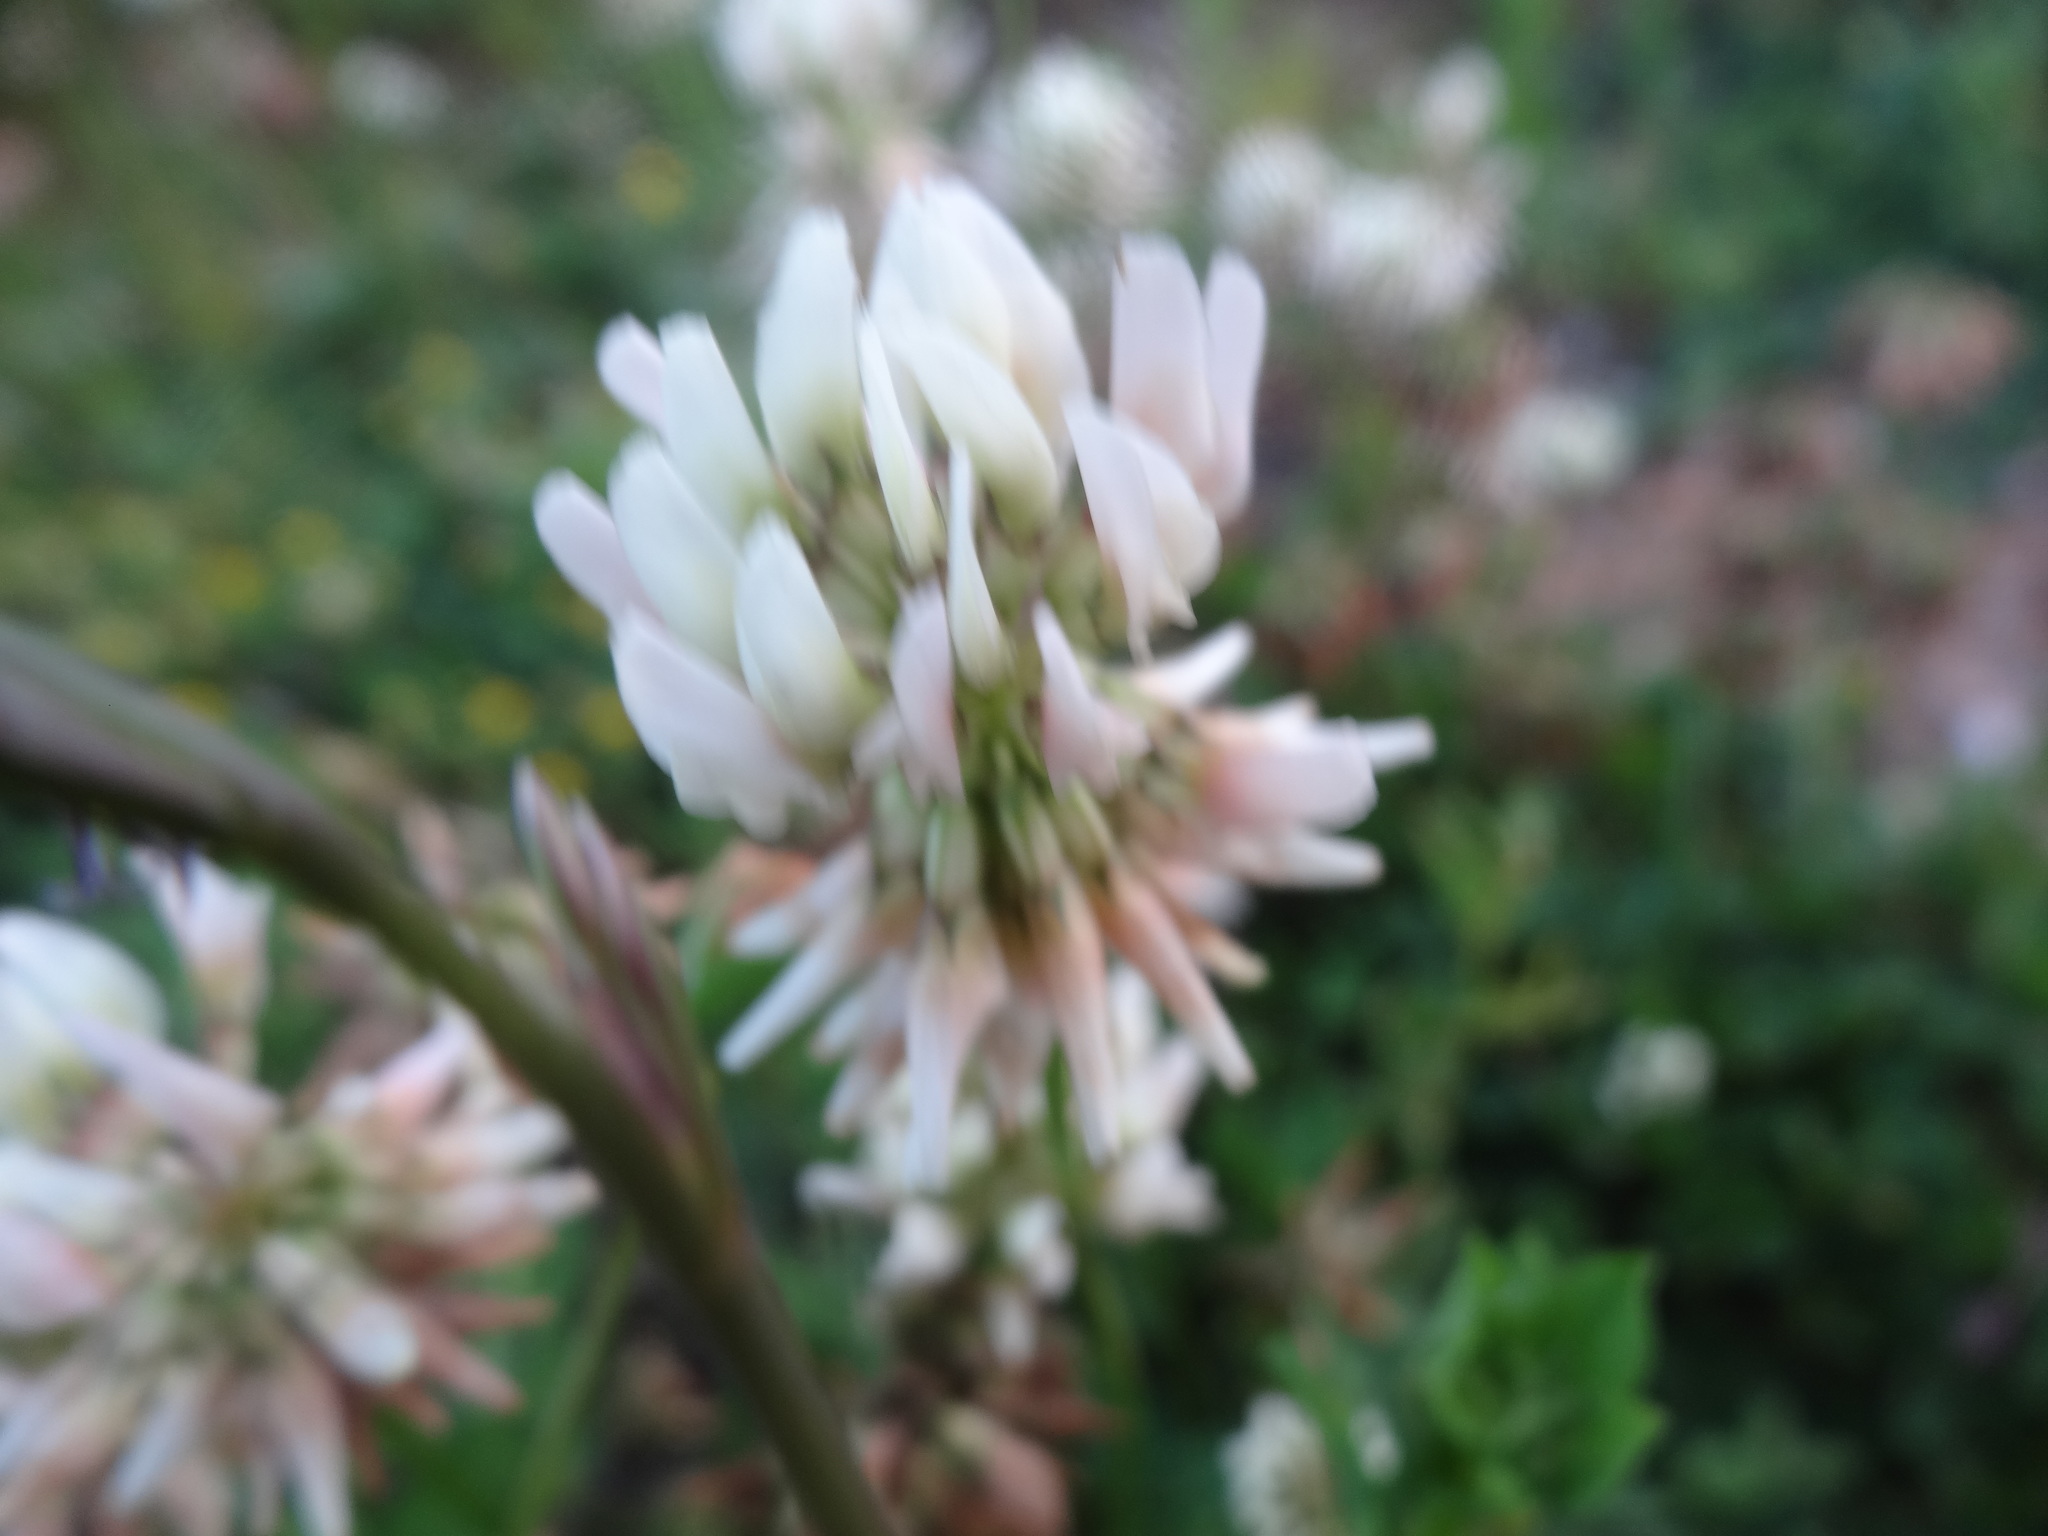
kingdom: Plantae
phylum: Tracheophyta
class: Magnoliopsida
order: Fabales
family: Fabaceae
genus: Trifolium
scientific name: Trifolium repens
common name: White clover
